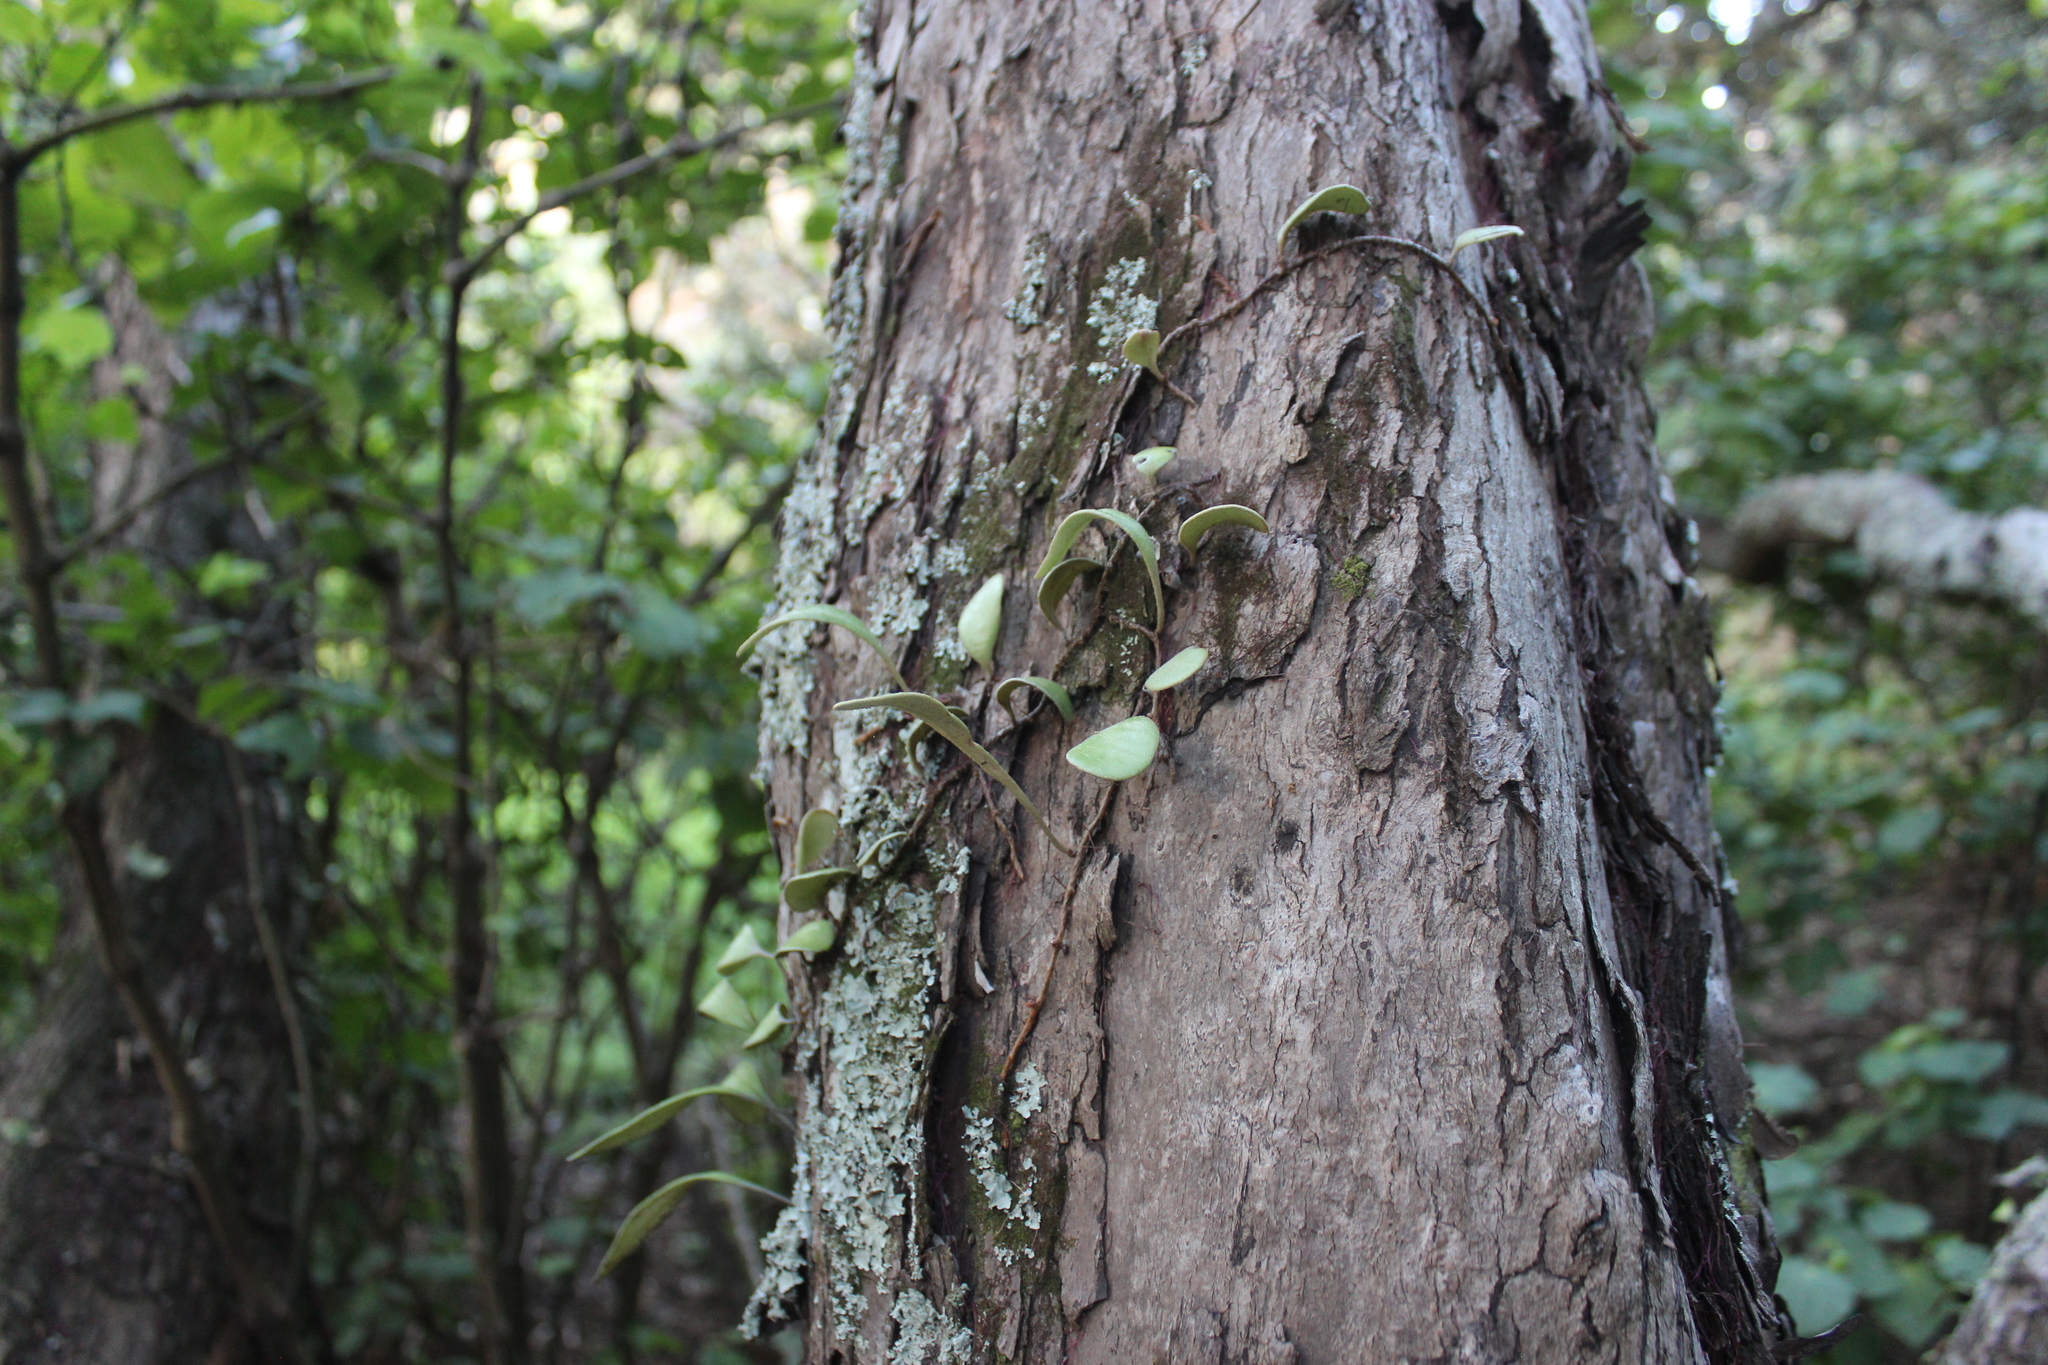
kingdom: Plantae
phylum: Tracheophyta
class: Polypodiopsida
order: Polypodiales
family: Polypodiaceae
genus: Pyrrosia
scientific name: Pyrrosia eleagnifolia
